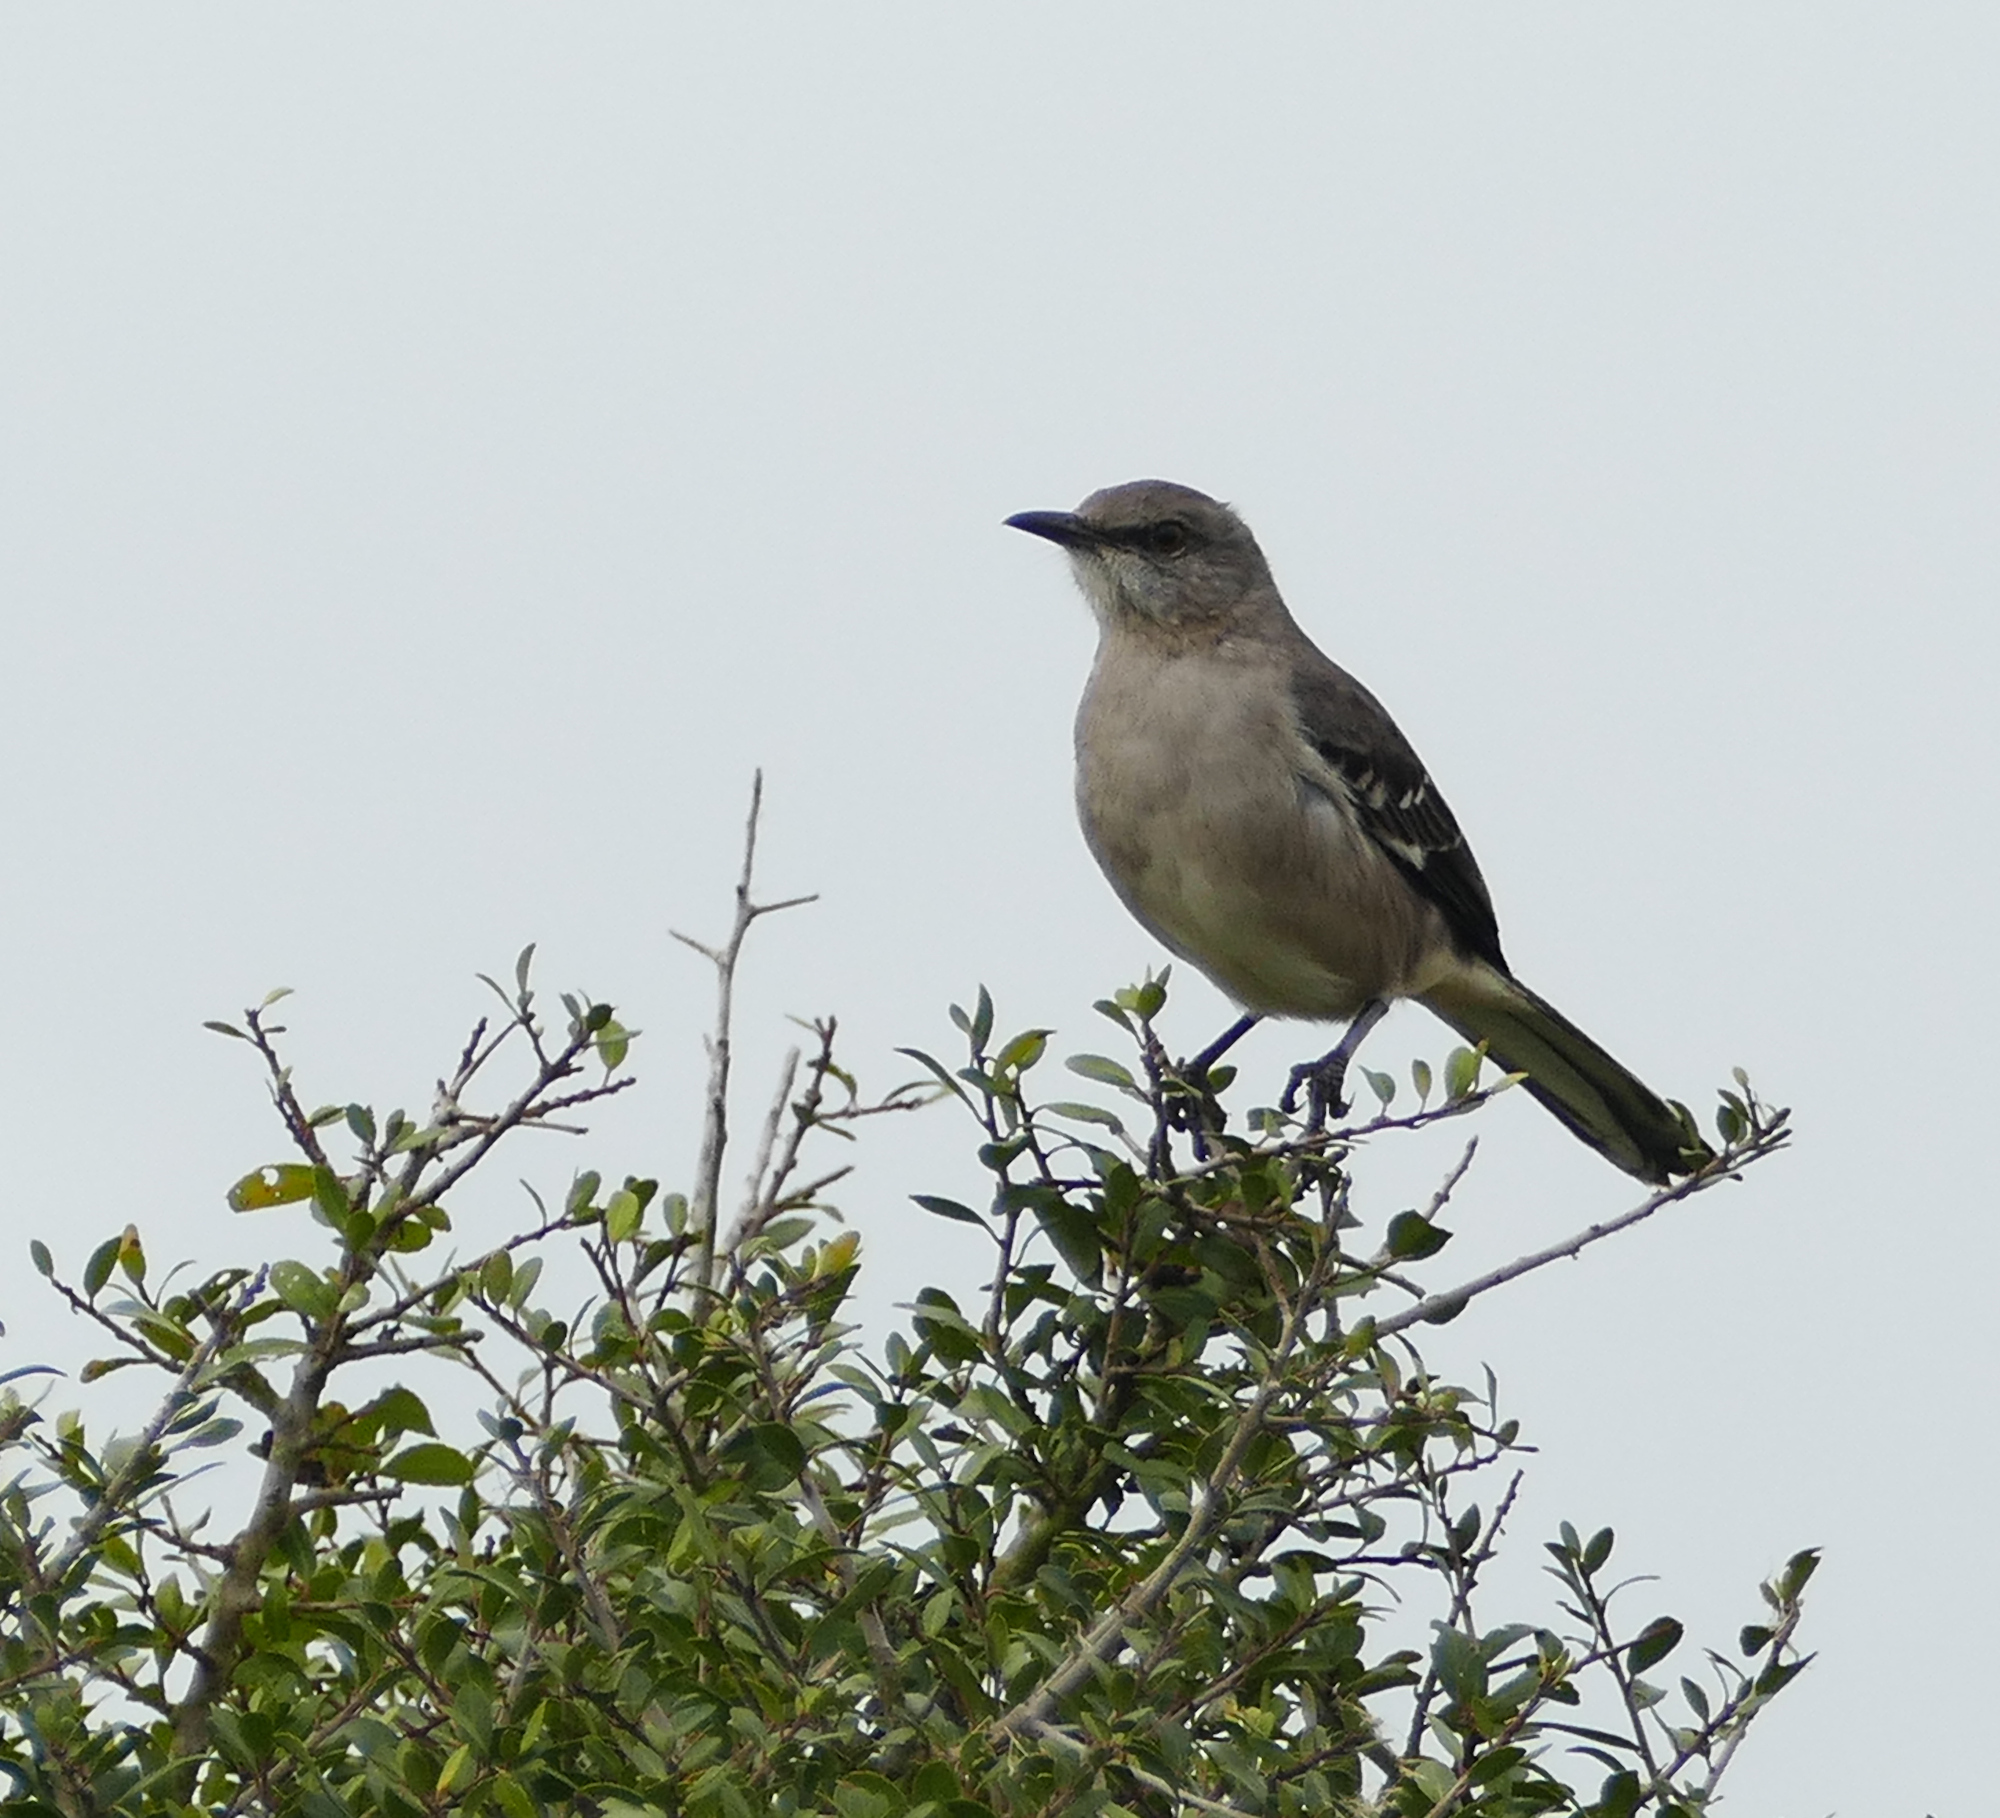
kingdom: Animalia
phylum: Chordata
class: Aves
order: Passeriformes
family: Mimidae
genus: Mimus
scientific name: Mimus polyglottos
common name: Northern mockingbird
